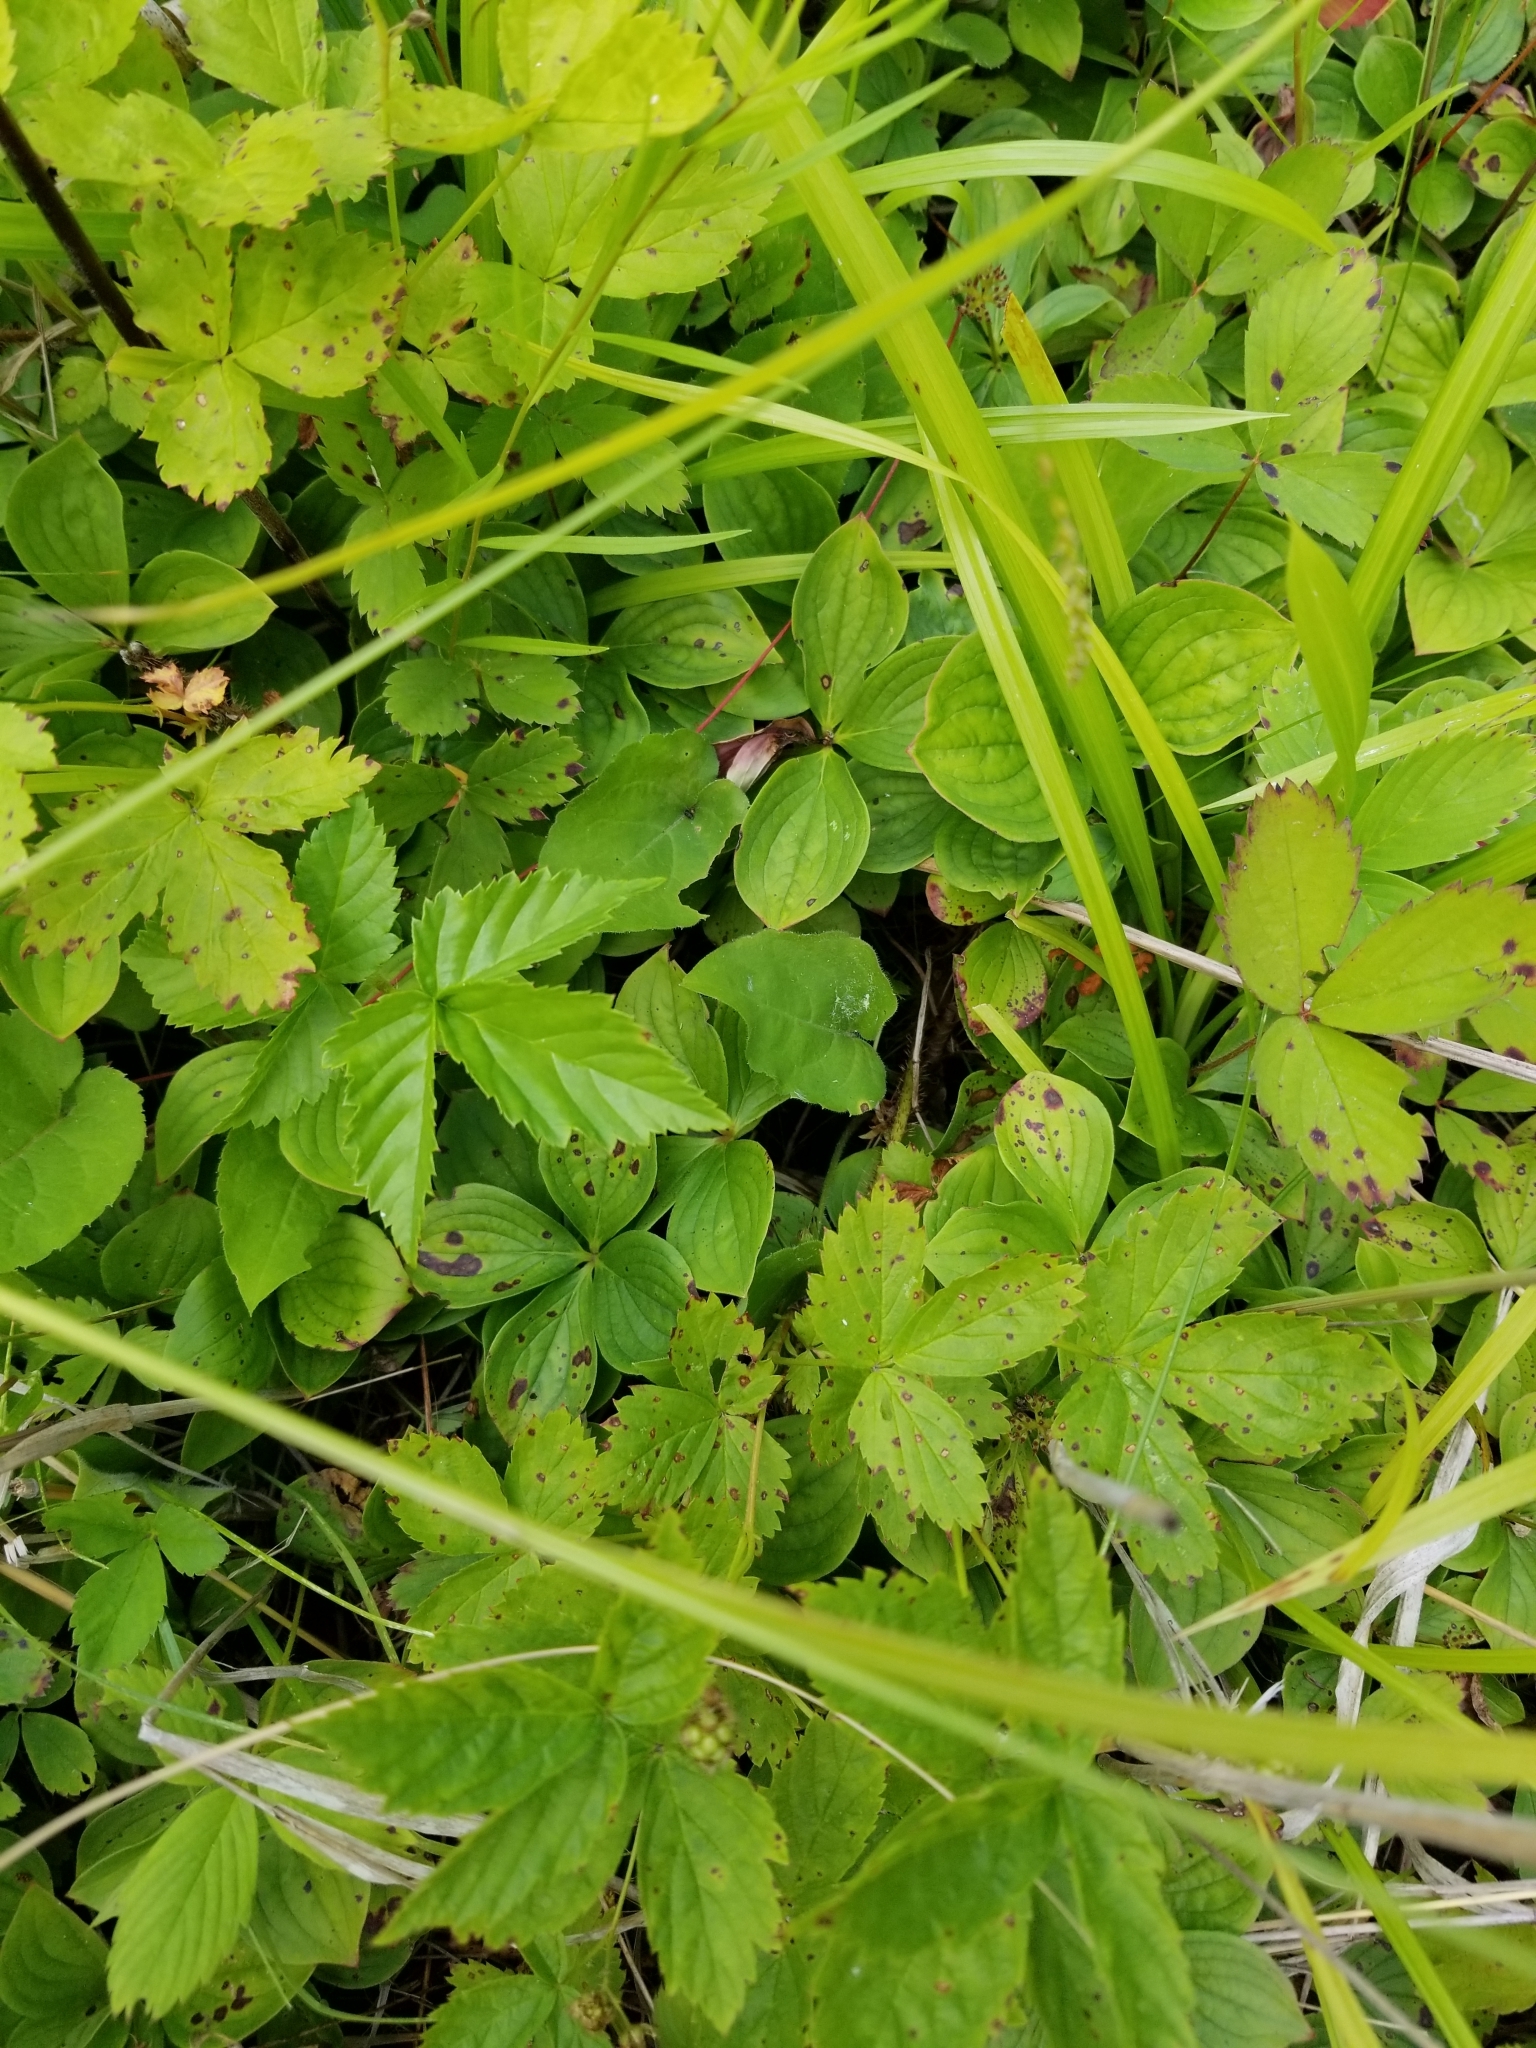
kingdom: Plantae
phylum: Tracheophyta
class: Magnoliopsida
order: Cornales
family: Cornaceae
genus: Cornus
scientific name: Cornus canadensis
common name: Creeping dogwood
